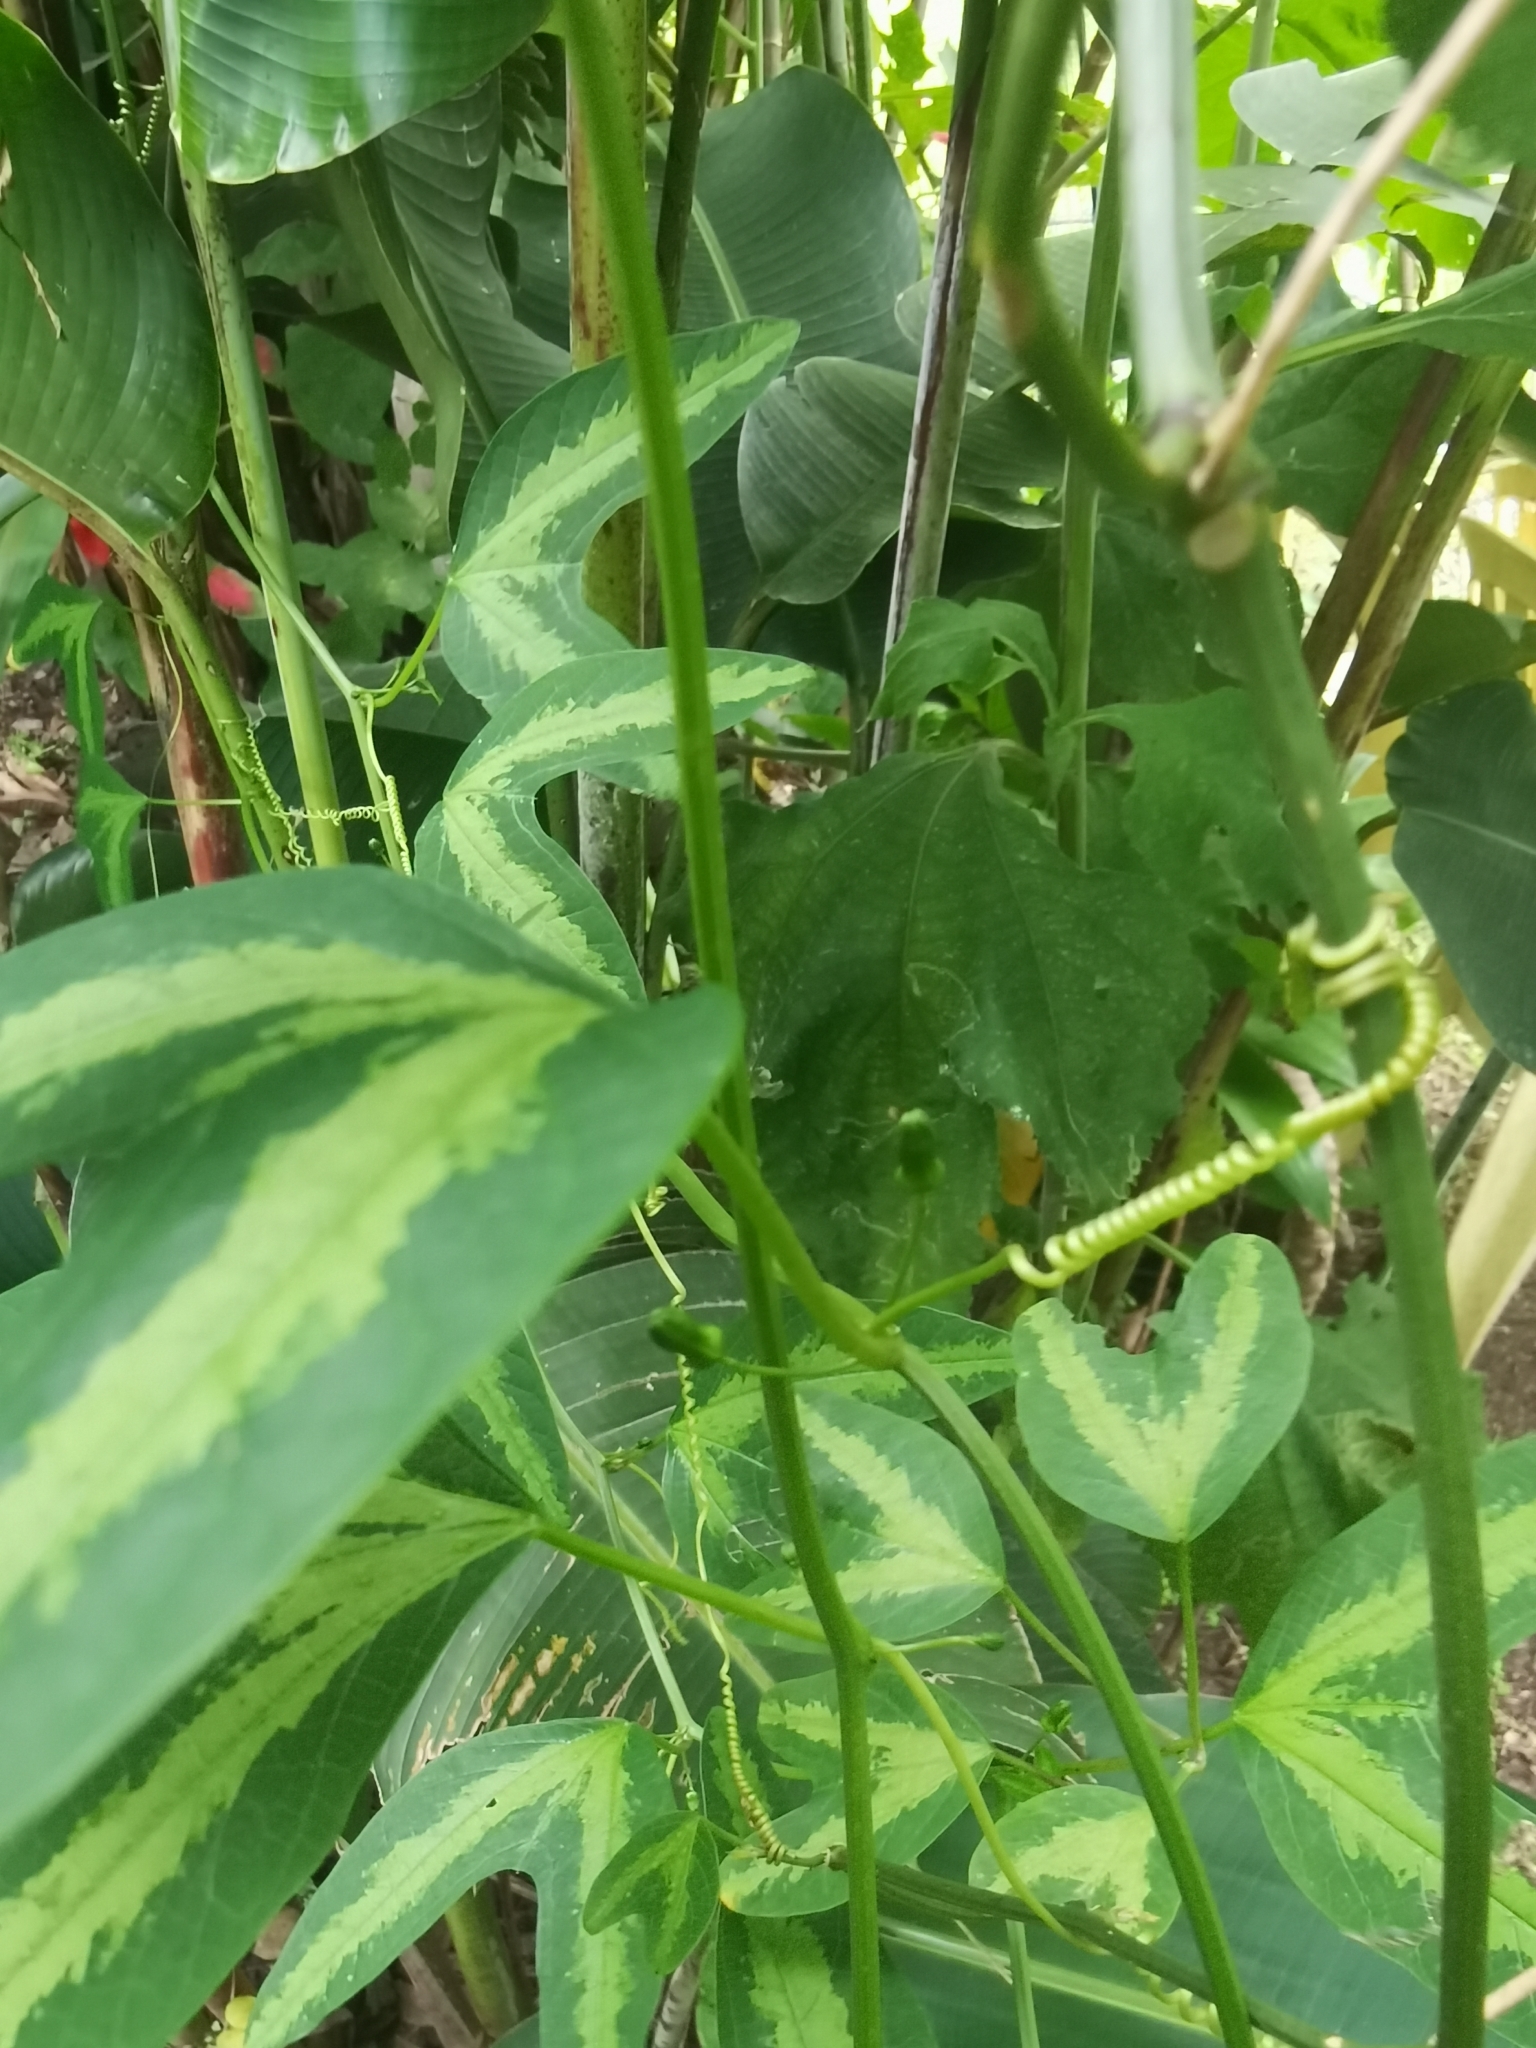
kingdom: Plantae
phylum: Tracheophyta
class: Magnoliopsida
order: Malpighiales
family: Passifloraceae
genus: Passiflora
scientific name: Passiflora apetala
